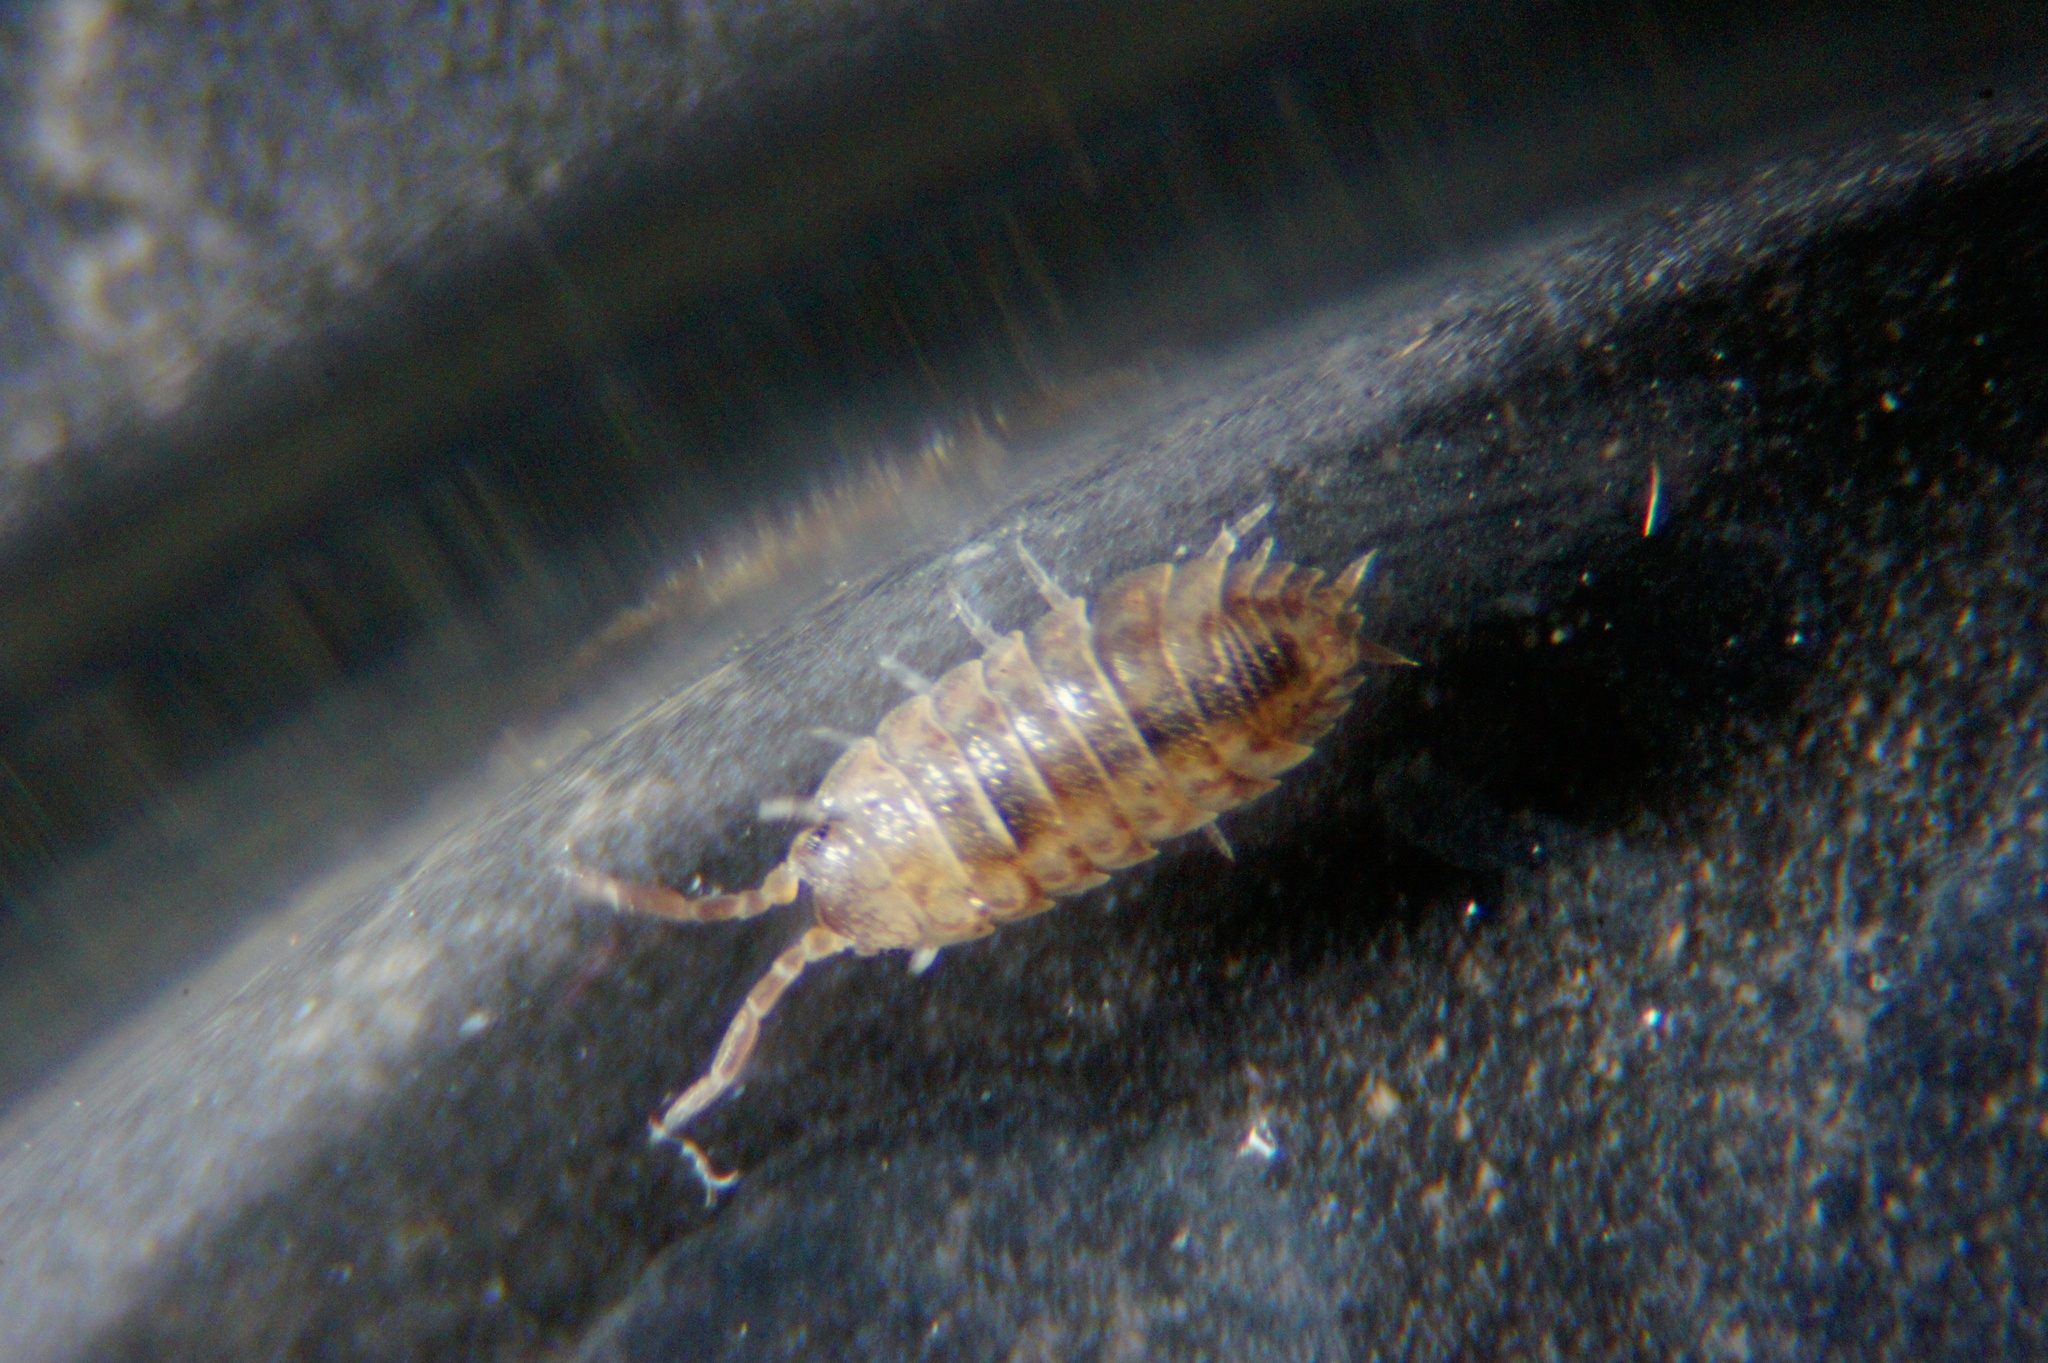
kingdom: Animalia
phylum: Arthropoda
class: Malacostraca
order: Isopoda
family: Porcellionidae
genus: Porcellio
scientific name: Porcellio scaber
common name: Common rough woodlouse
